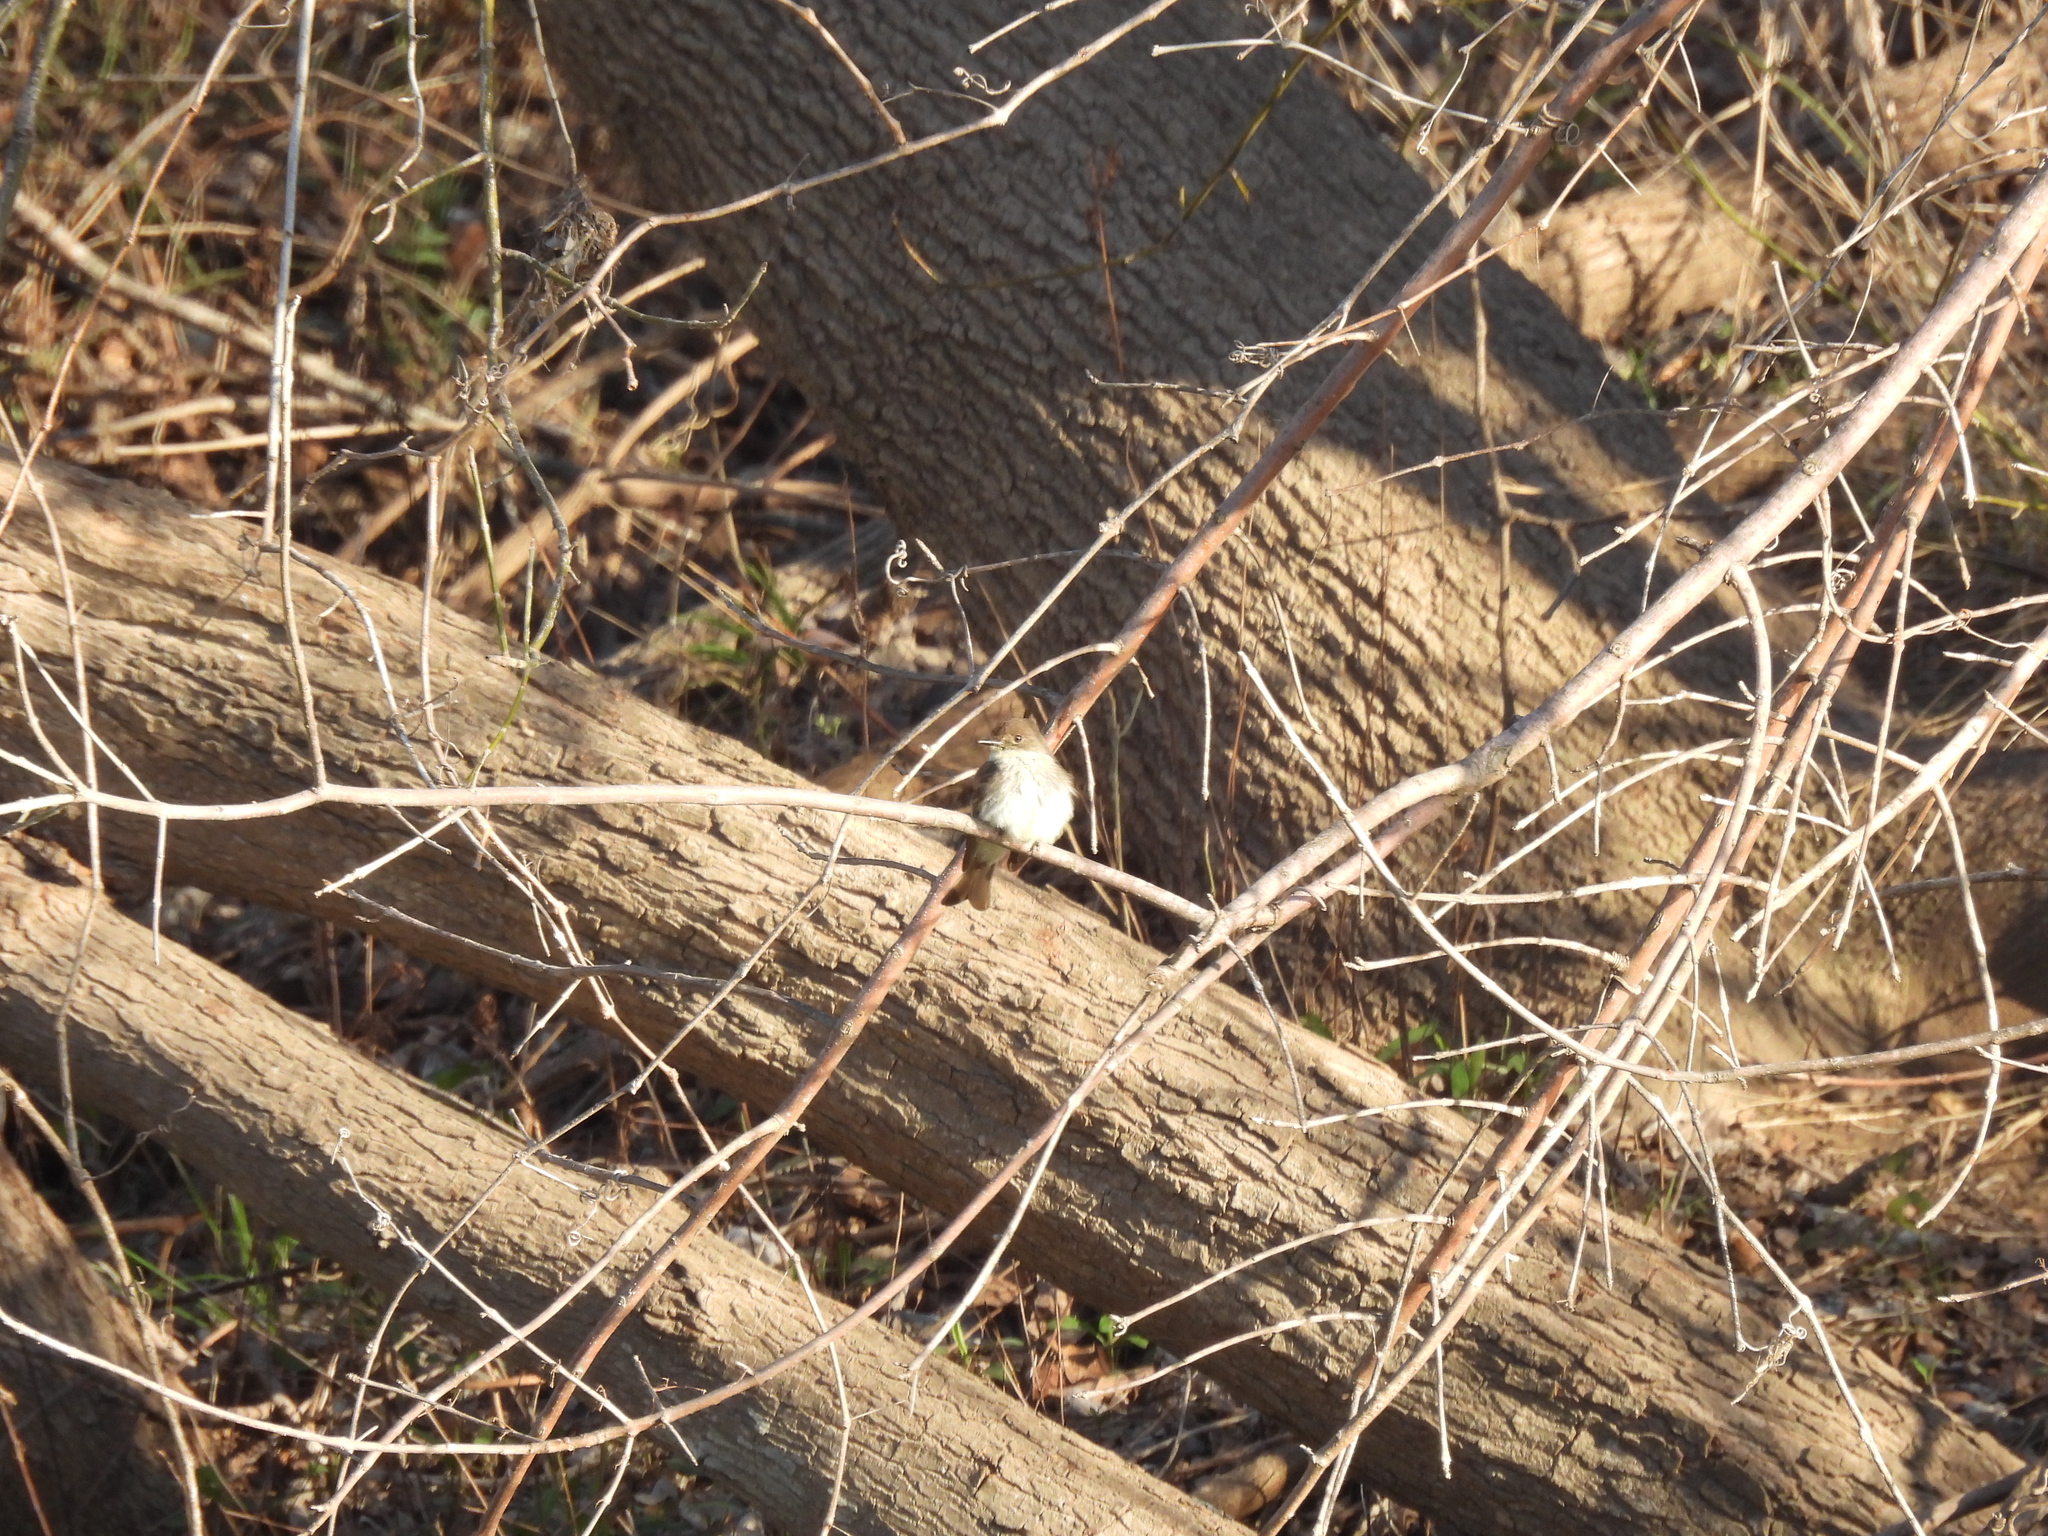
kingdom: Animalia
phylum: Chordata
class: Aves
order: Passeriformes
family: Tyrannidae
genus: Sayornis
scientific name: Sayornis phoebe
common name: Eastern phoebe
